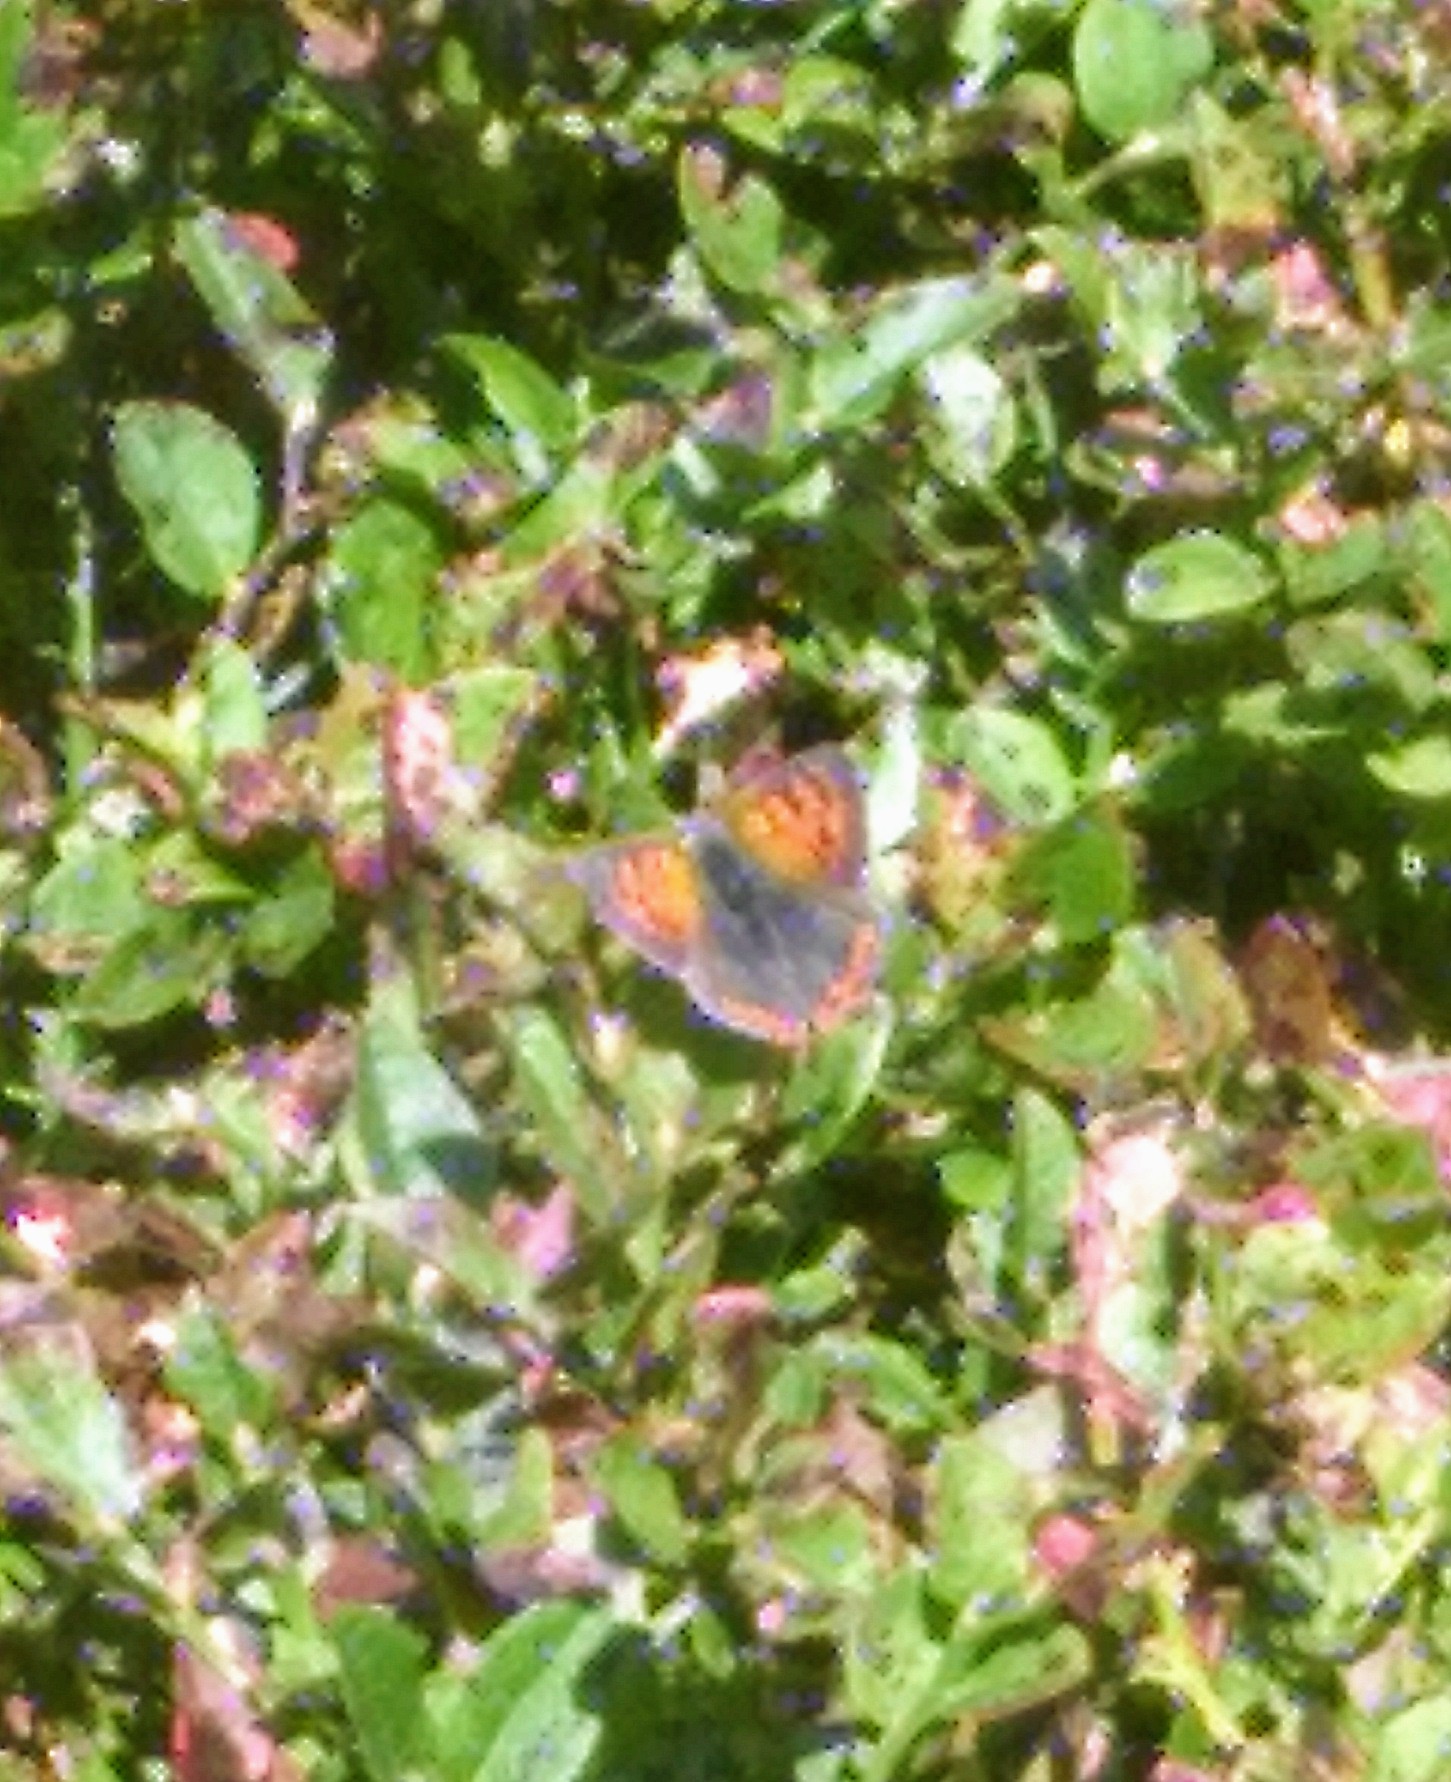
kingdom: Animalia
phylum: Arthropoda
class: Insecta
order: Lepidoptera
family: Lycaenidae
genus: Lycaena
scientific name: Lycaena phlaeas
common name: Small copper
